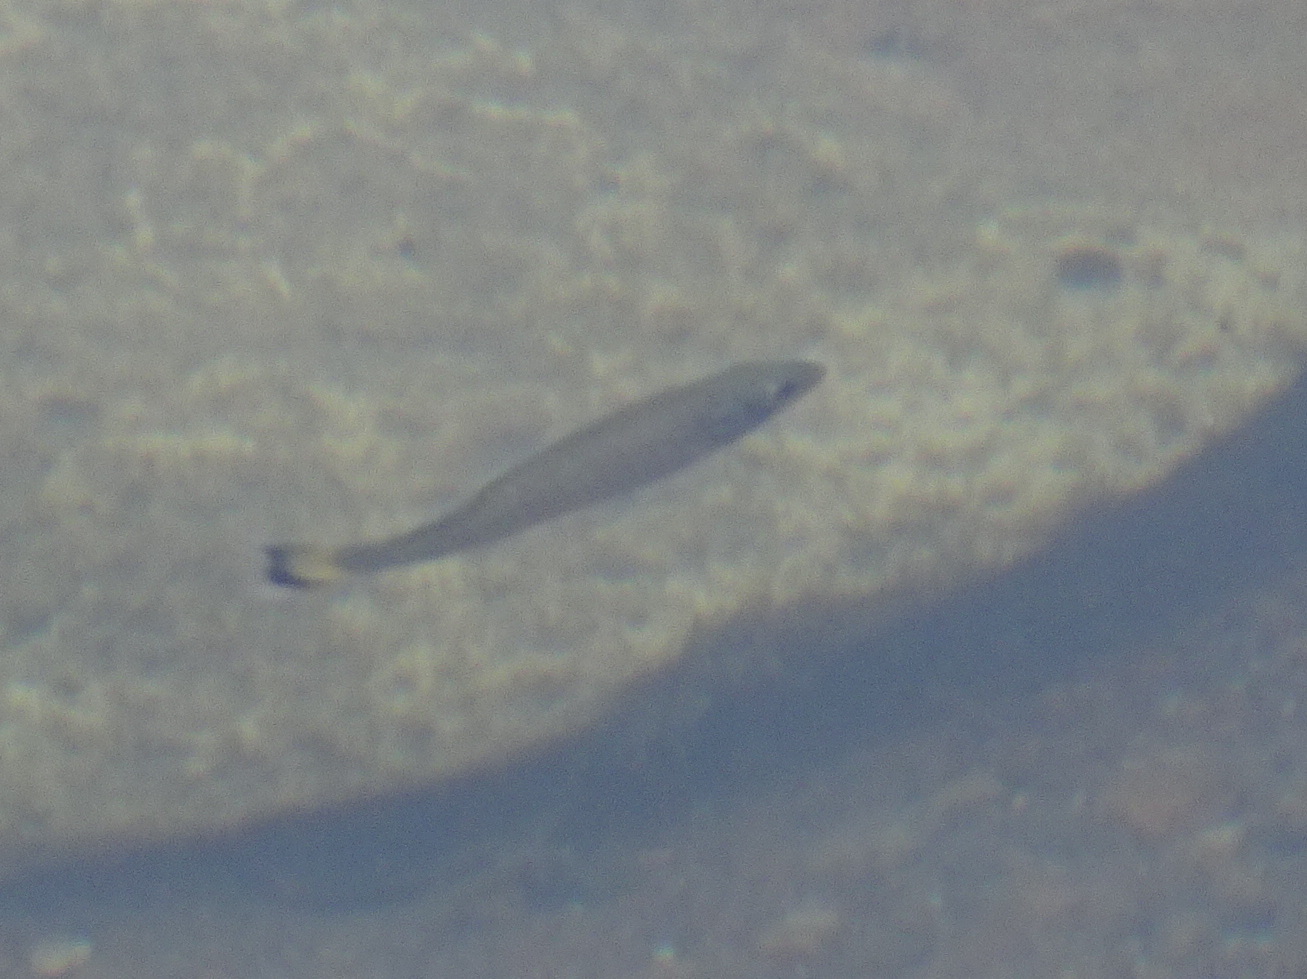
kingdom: Animalia
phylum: Chordata
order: Perciformes
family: Centrarchidae
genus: Micropterus
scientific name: Micropterus dolomieu
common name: Smallmouth bass
